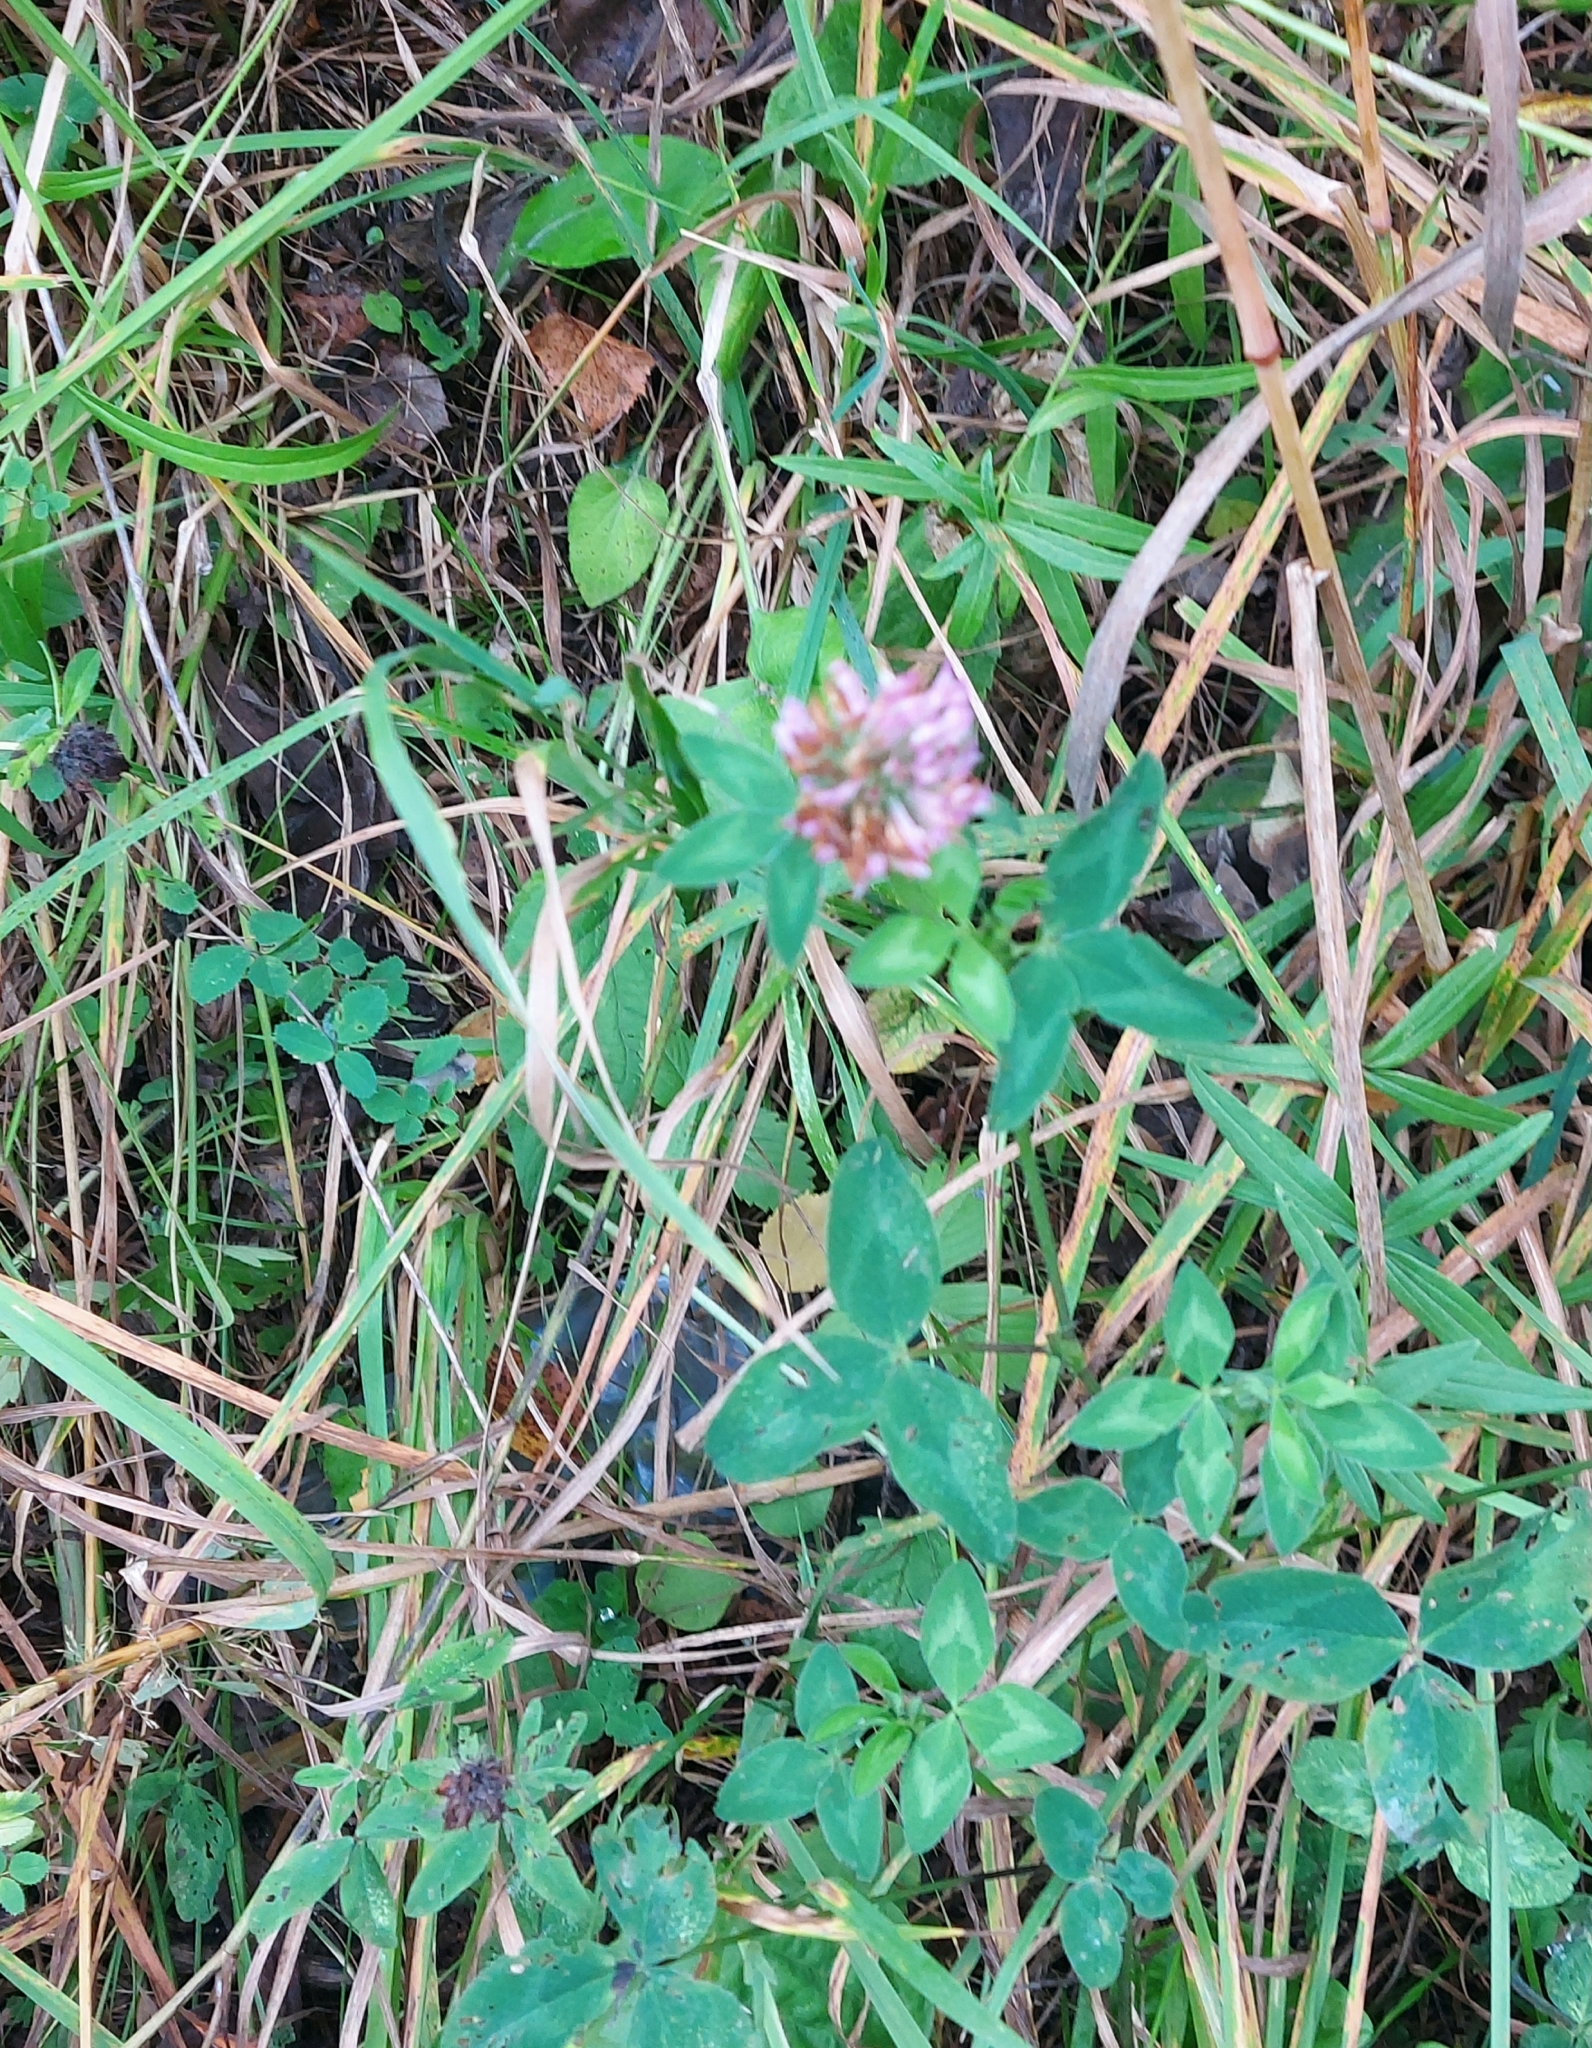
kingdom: Plantae
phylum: Tracheophyta
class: Magnoliopsida
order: Fabales
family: Fabaceae
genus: Trifolium
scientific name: Trifolium pratense
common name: Red clover
